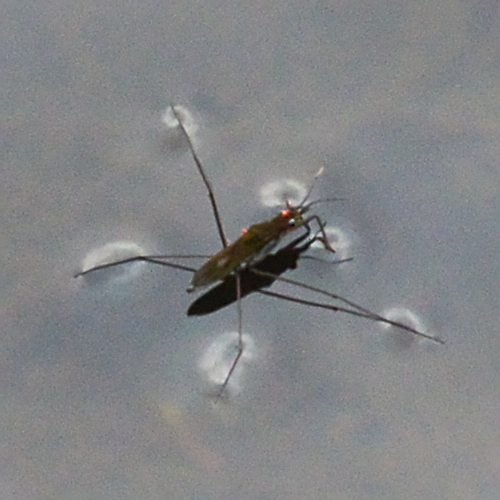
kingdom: Animalia
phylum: Arthropoda
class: Insecta
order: Hemiptera
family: Gerridae
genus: Gerris
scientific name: Gerris
